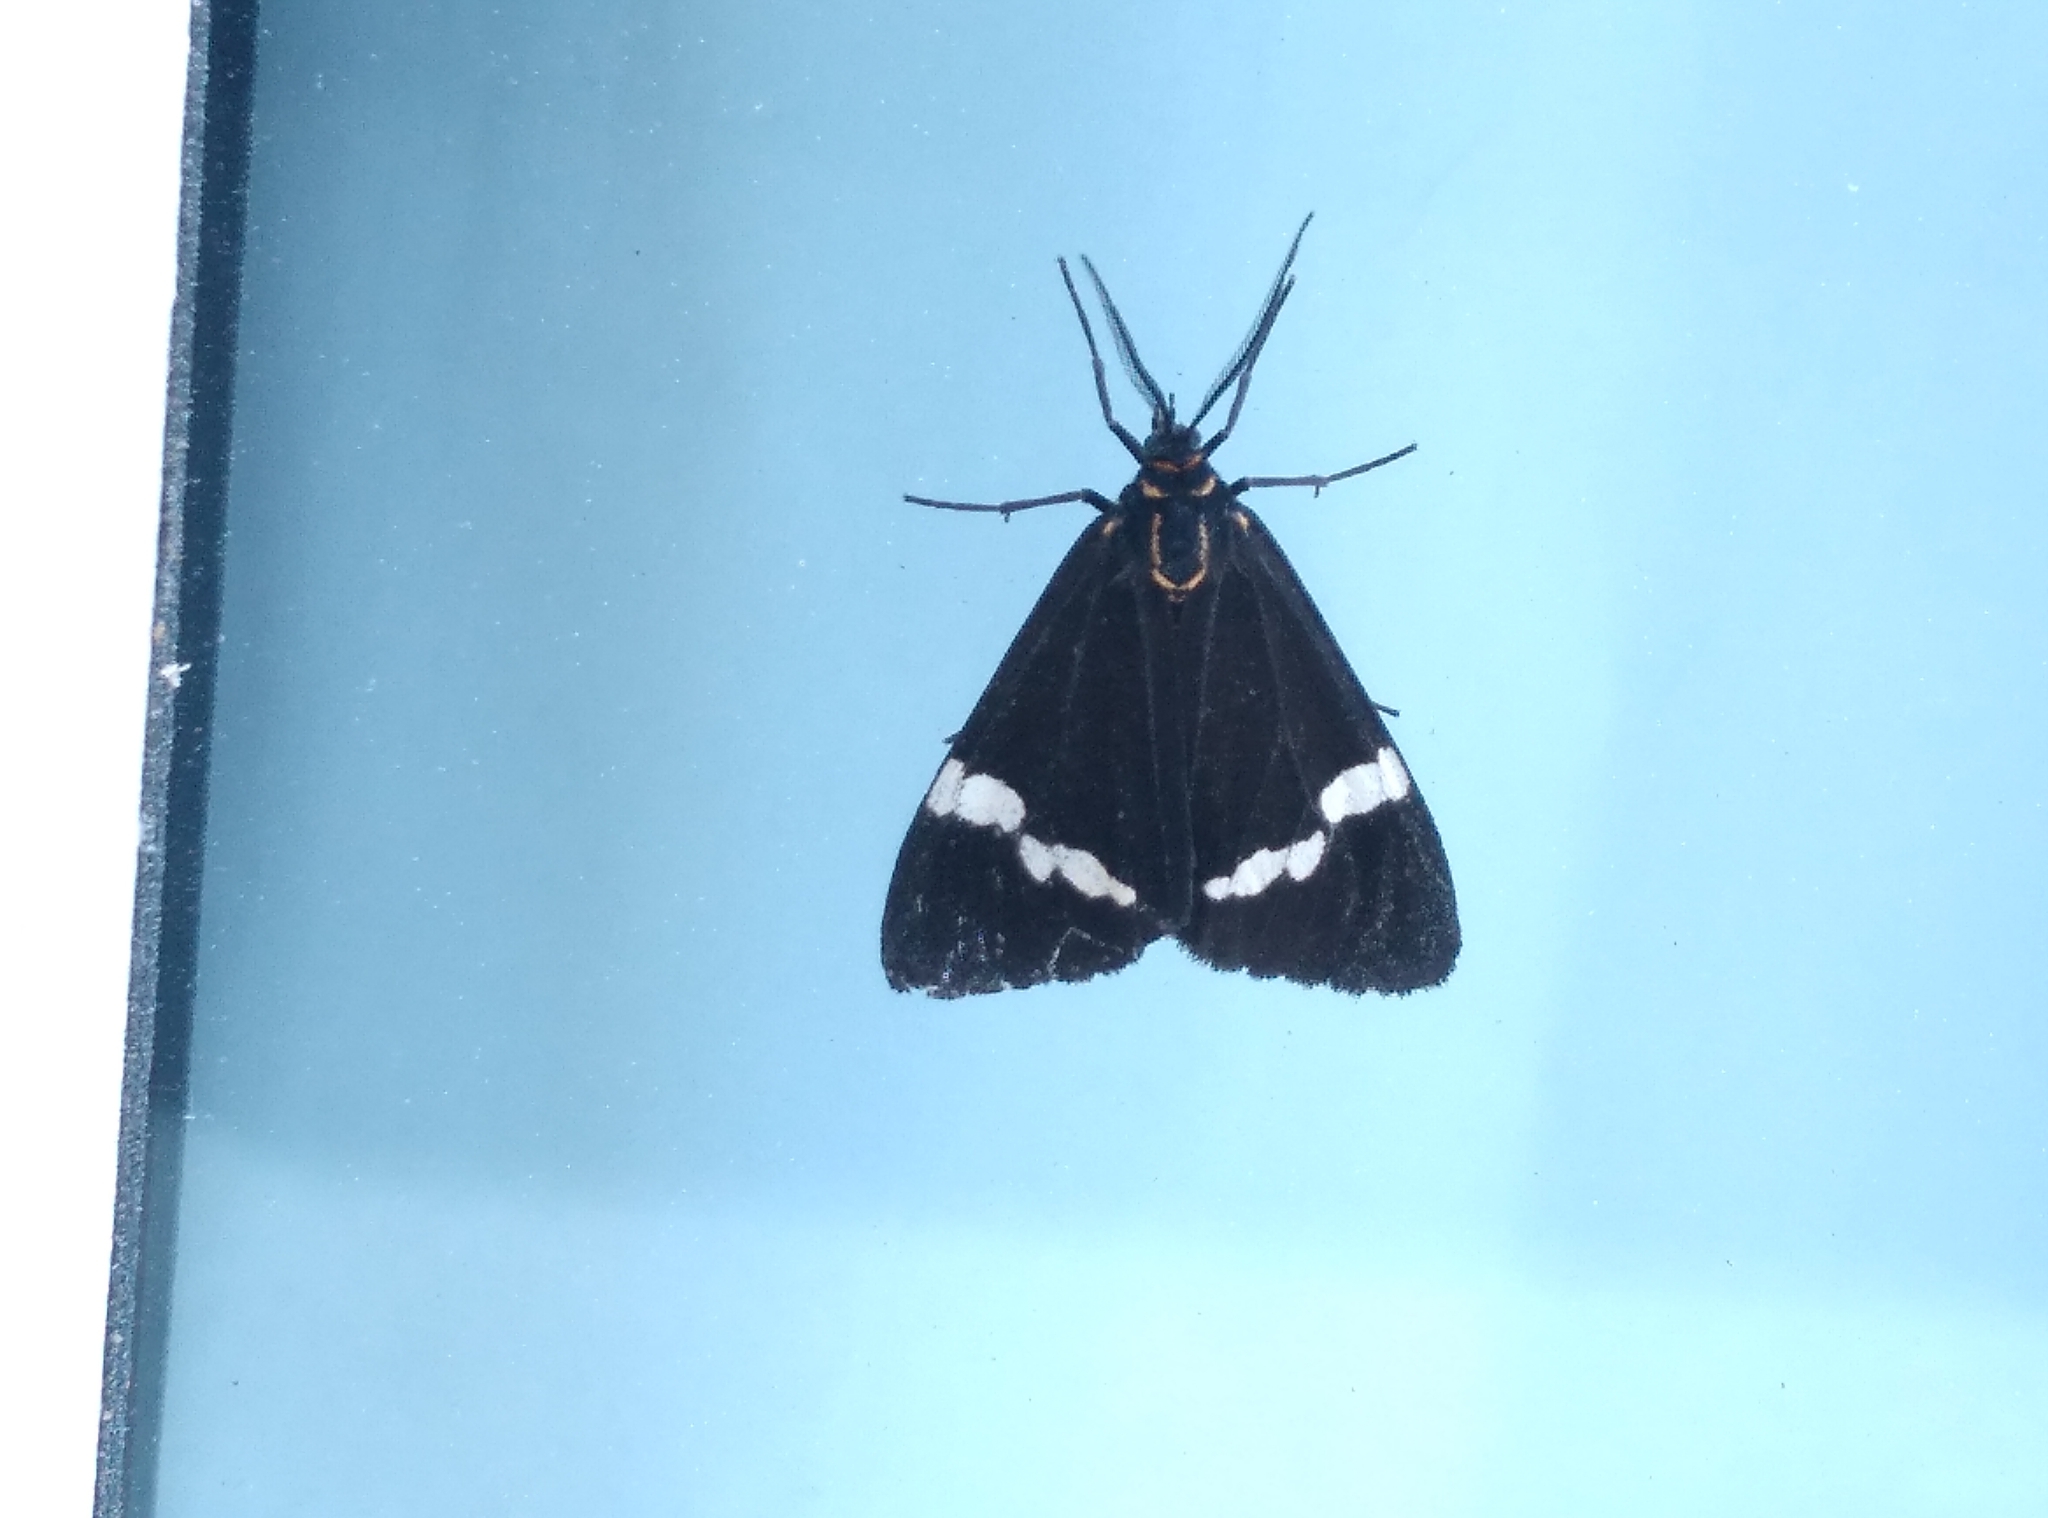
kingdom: Animalia
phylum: Arthropoda
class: Insecta
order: Lepidoptera
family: Erebidae
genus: Nyctemera
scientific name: Nyctemera annulatum
